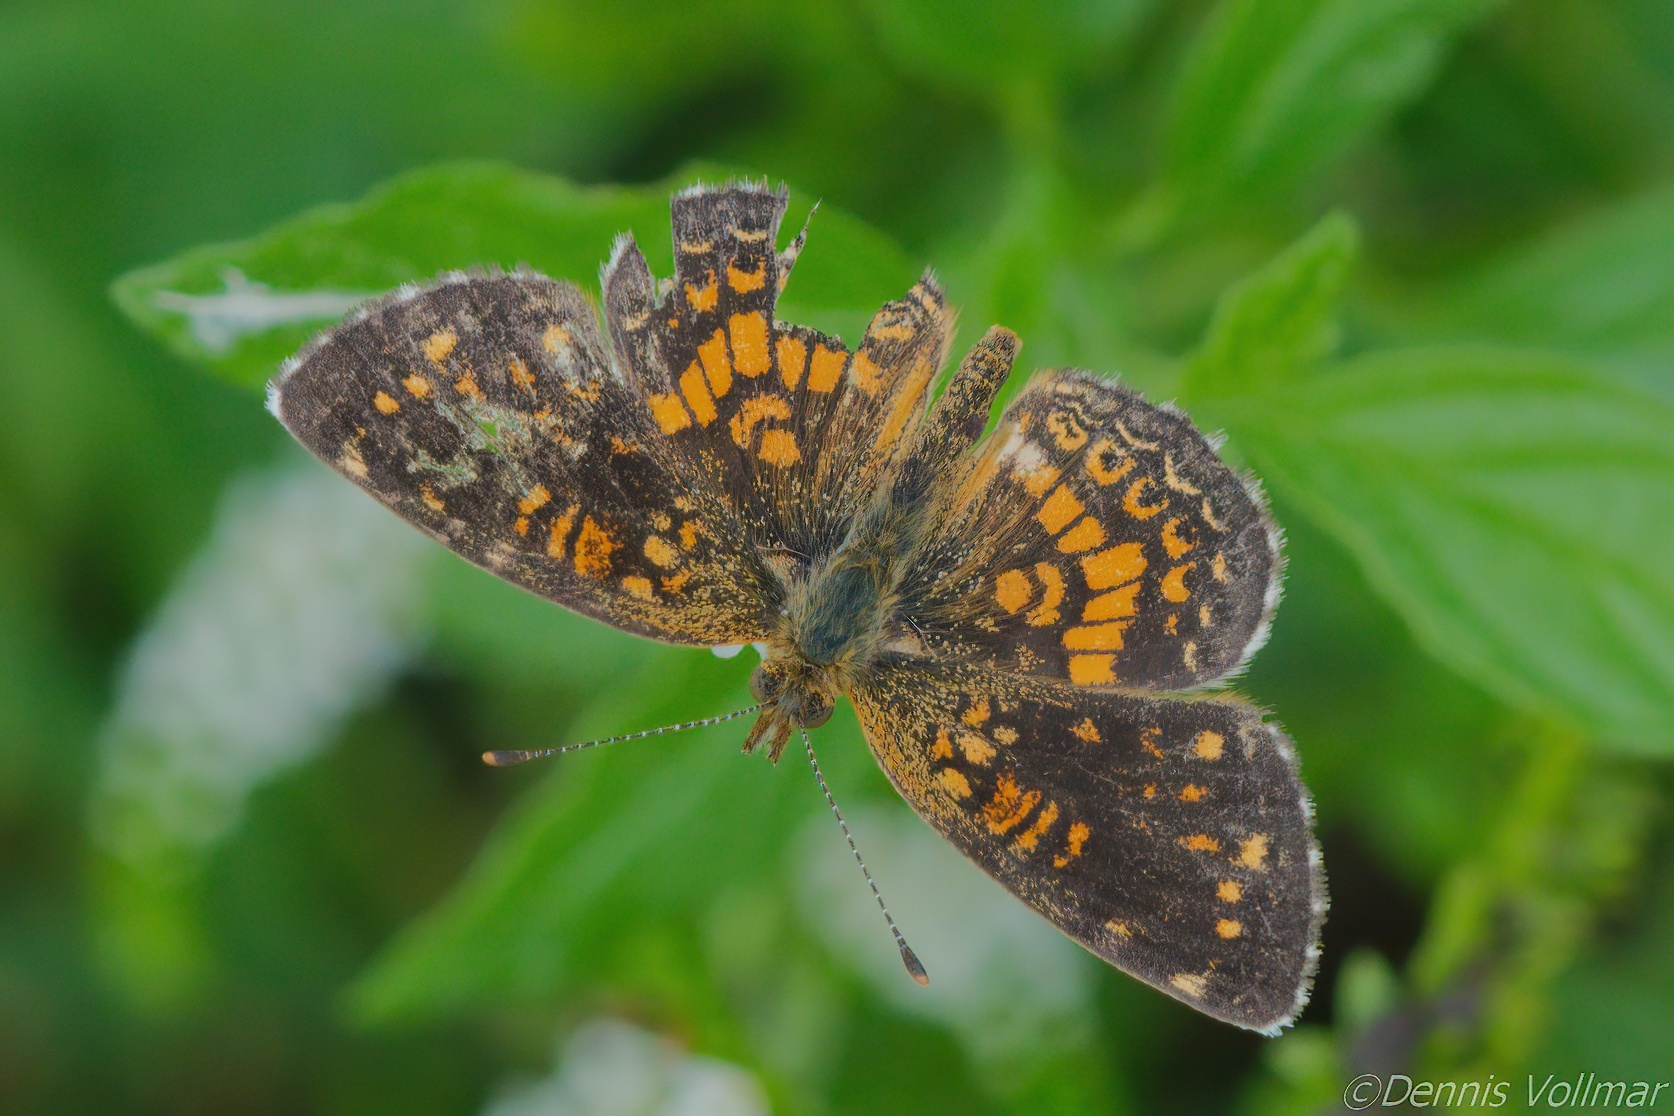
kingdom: Animalia
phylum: Arthropoda
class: Insecta
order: Lepidoptera
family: Nymphalidae
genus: Phyciodes
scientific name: Phyciodes vesta
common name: Vesta crescent
